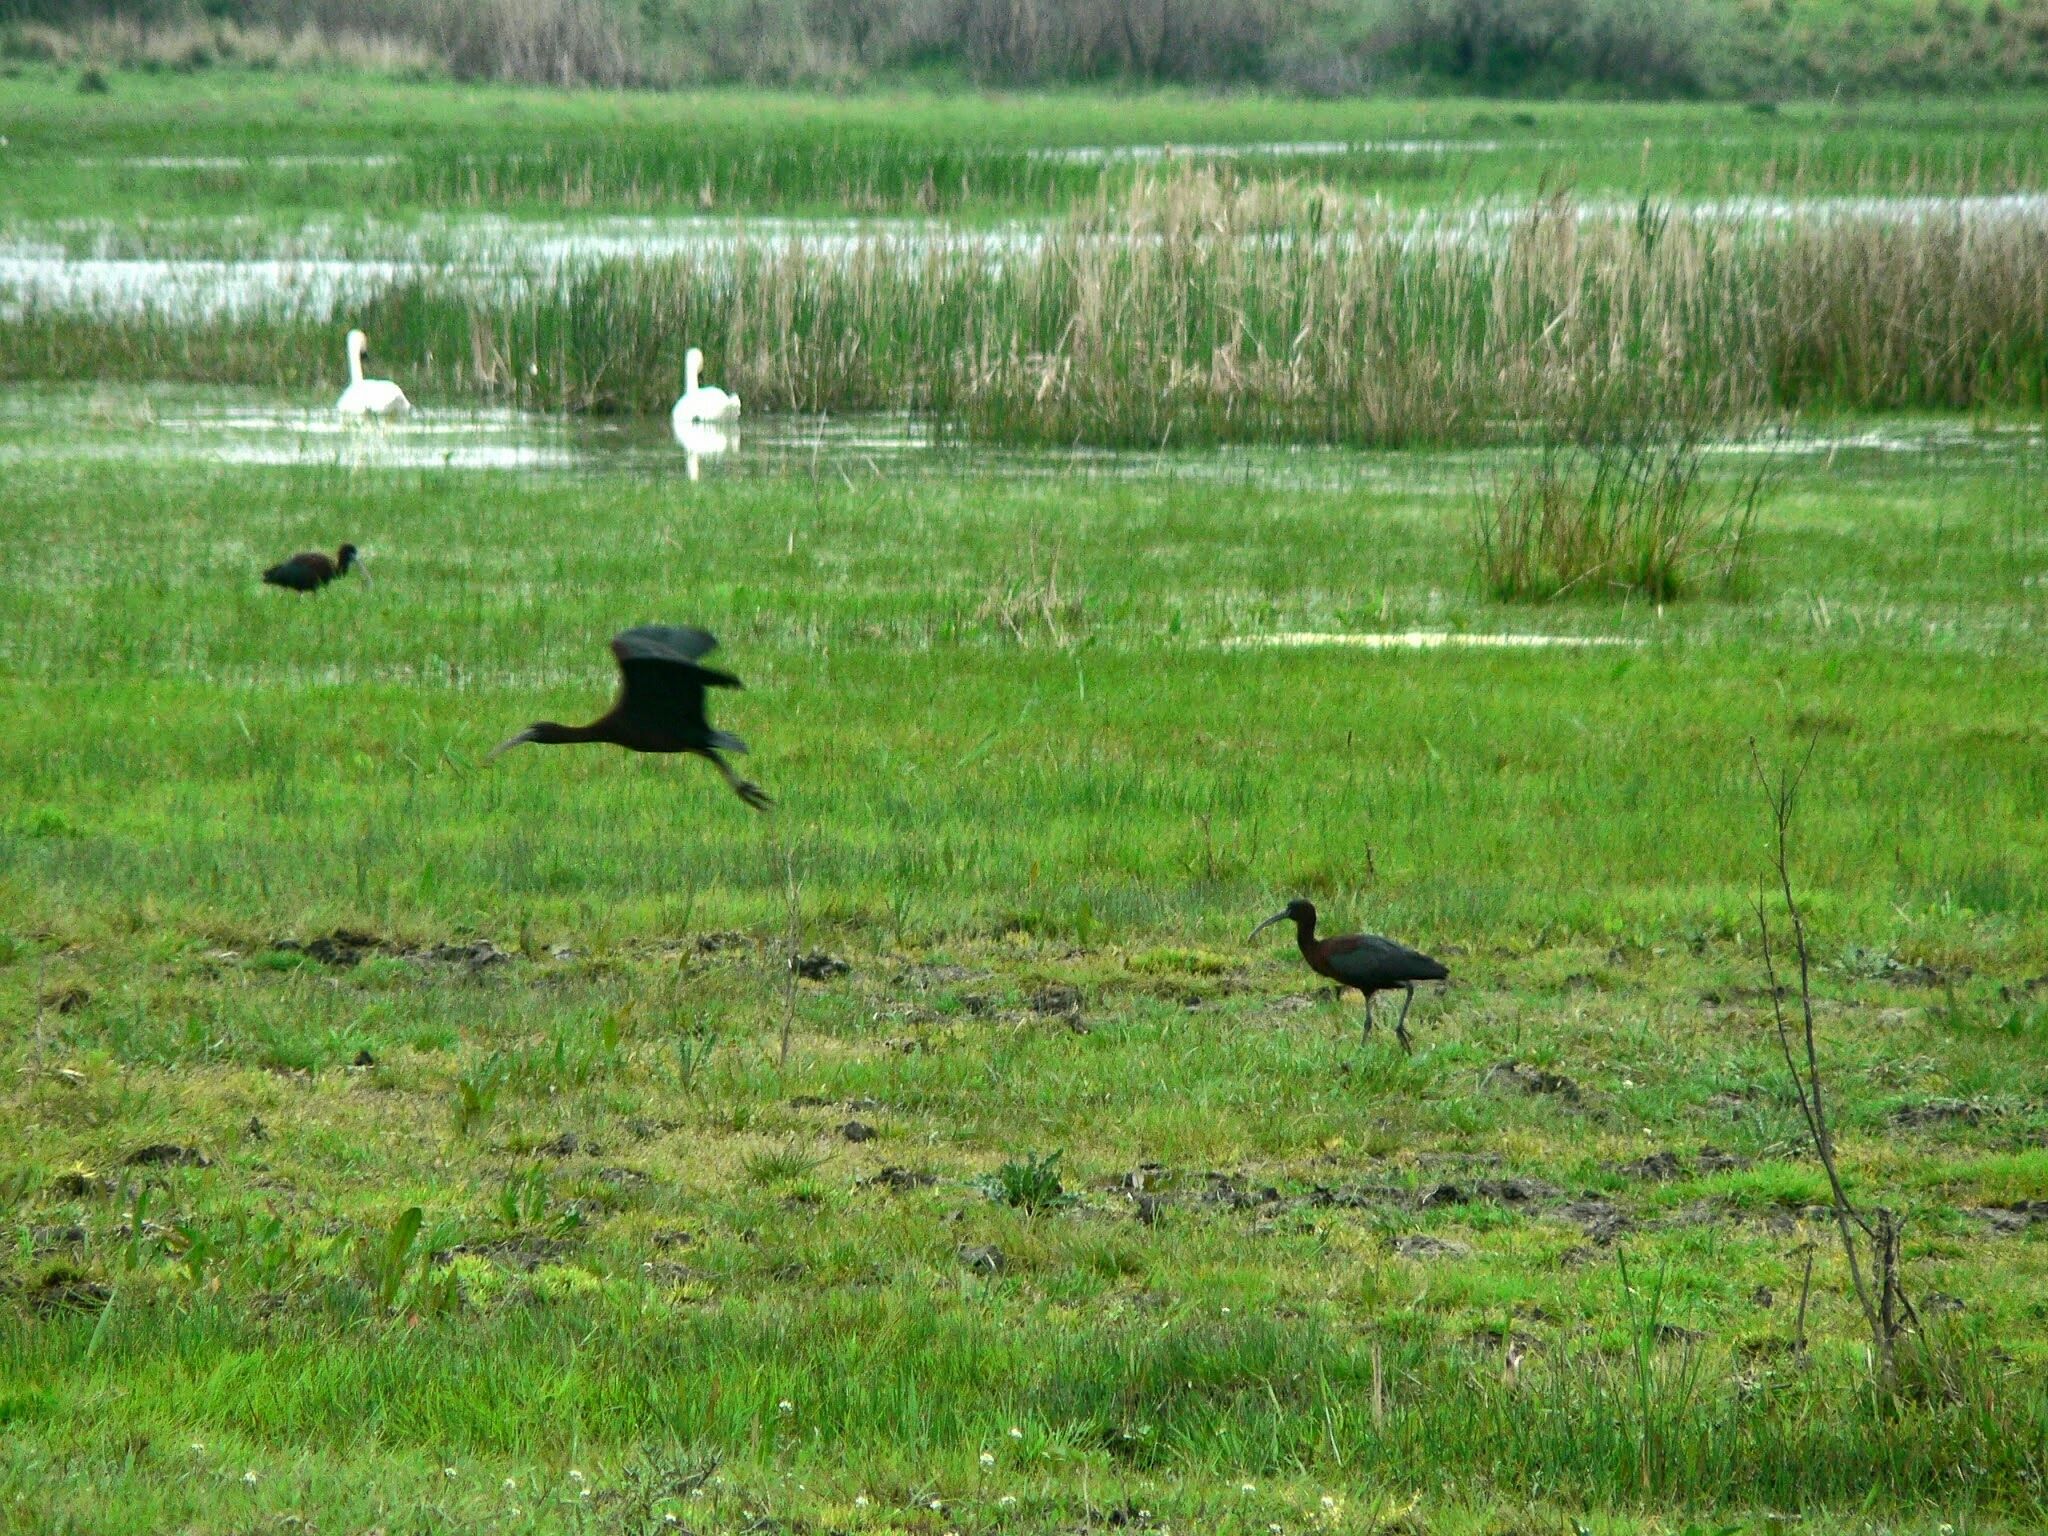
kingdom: Animalia
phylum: Chordata
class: Aves
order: Pelecaniformes
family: Threskiornithidae
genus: Plegadis
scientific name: Plegadis falcinellus
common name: Glossy ibis
